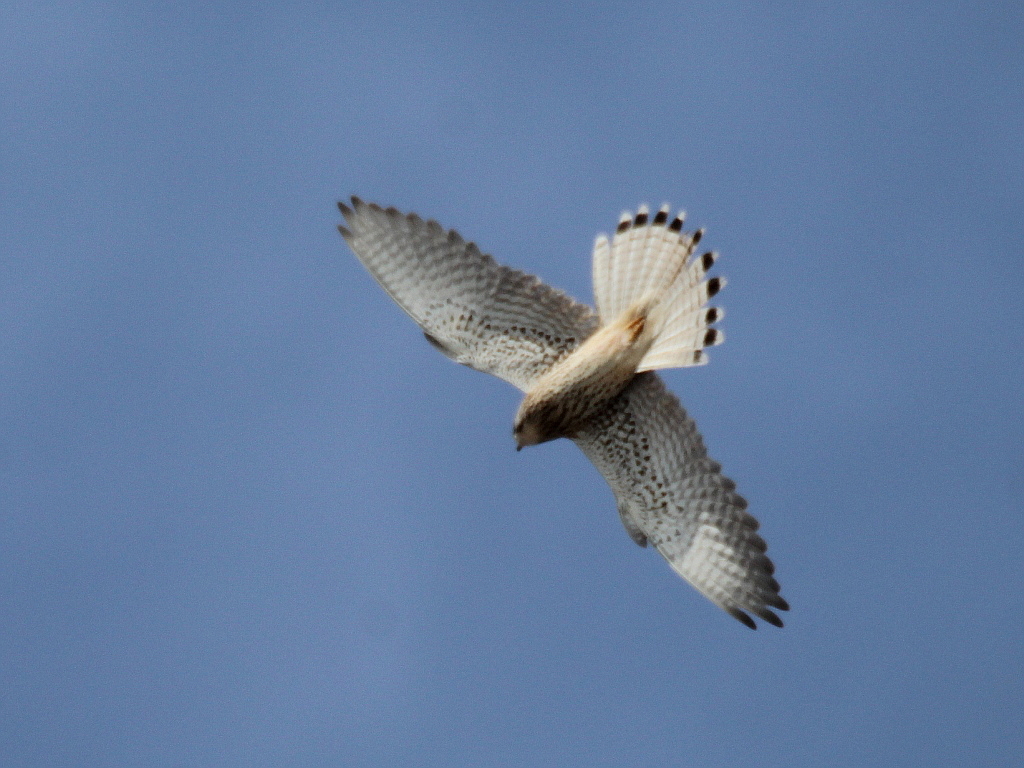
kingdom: Animalia
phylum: Chordata
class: Aves
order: Falconiformes
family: Falconidae
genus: Falco
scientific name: Falco tinnunculus
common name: Common kestrel
